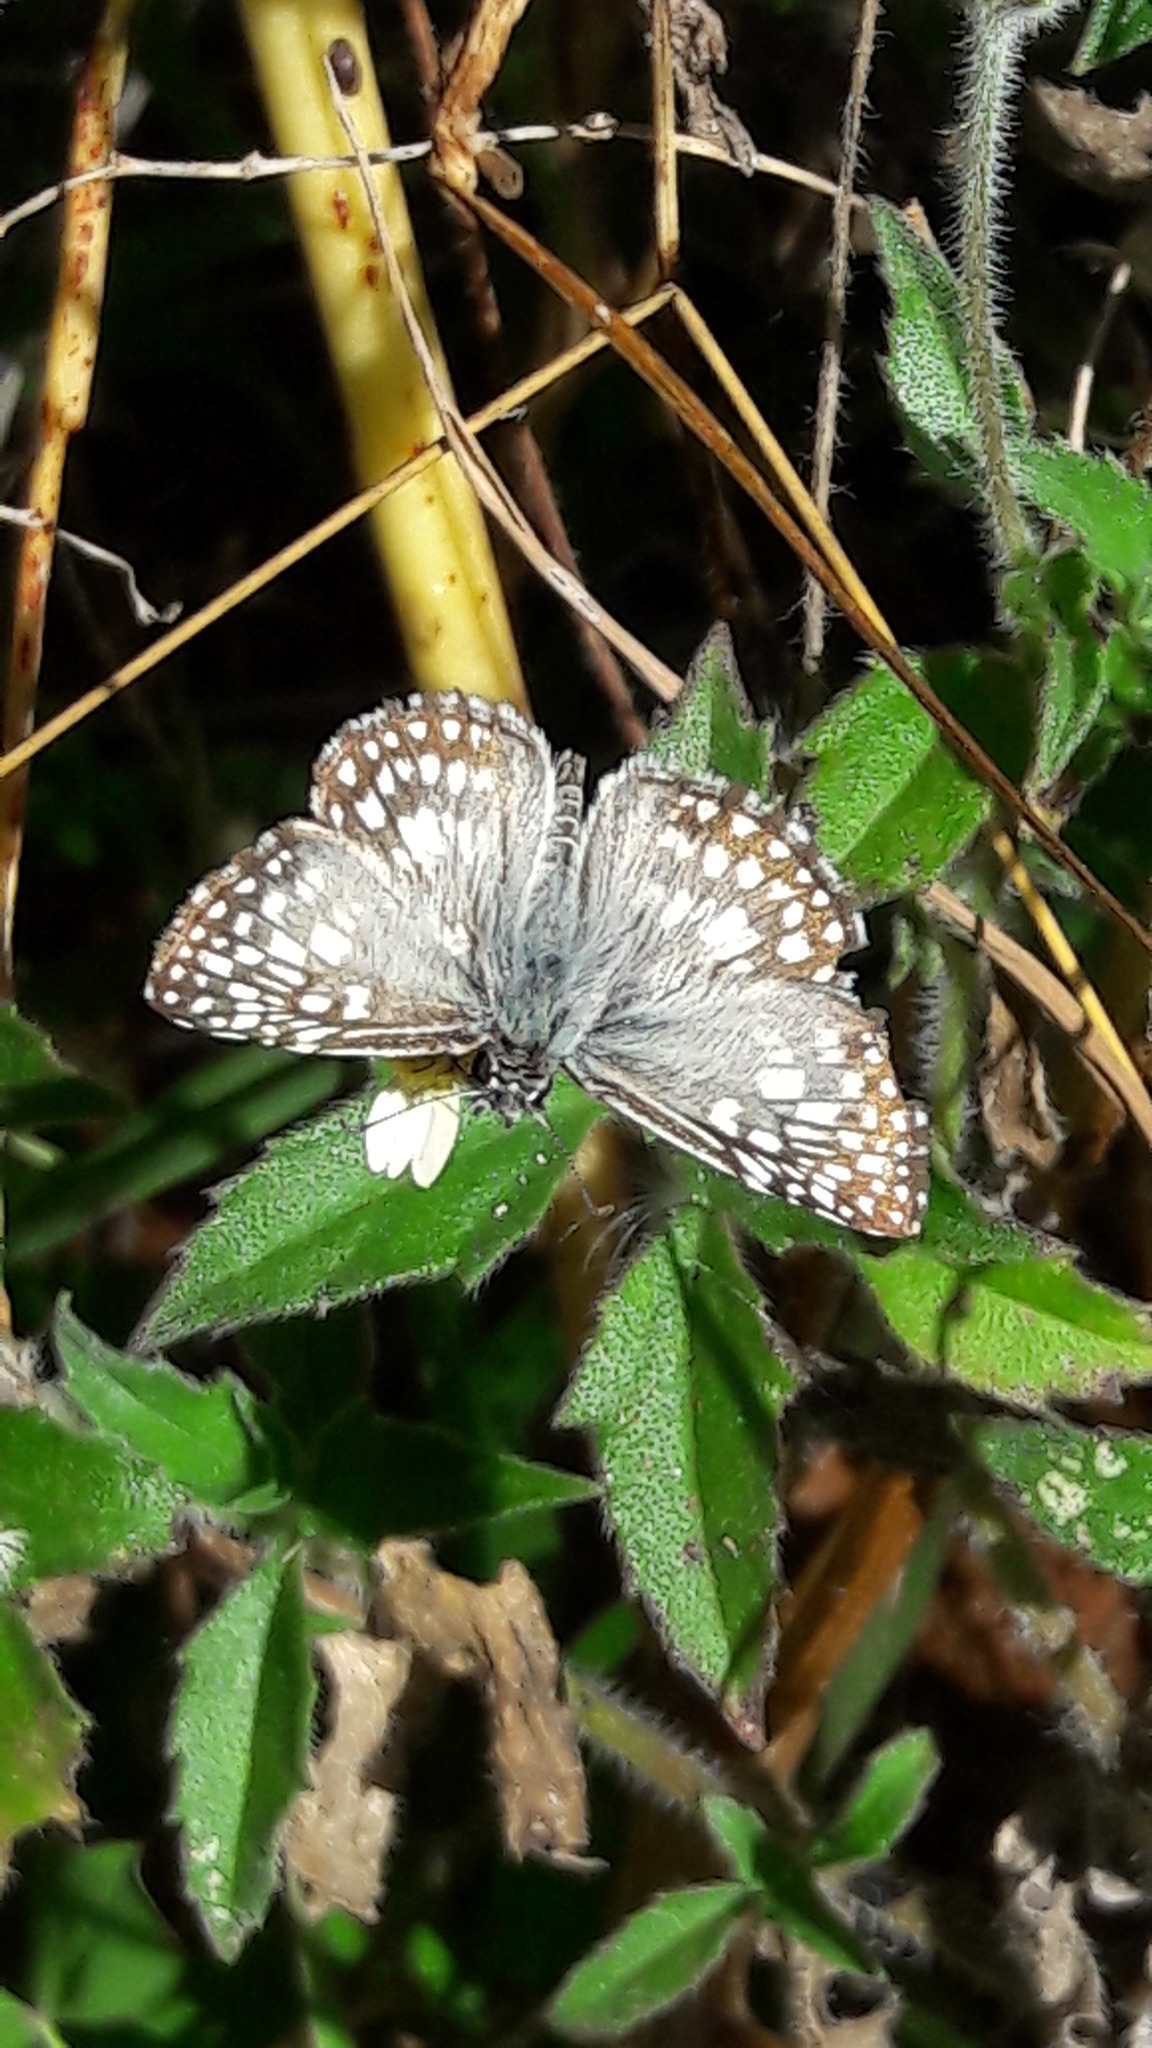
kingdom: Animalia
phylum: Arthropoda
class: Insecta
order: Lepidoptera
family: Hesperiidae
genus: Pyrgus
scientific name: Pyrgus oileus
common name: Tropical checkered-skipper
